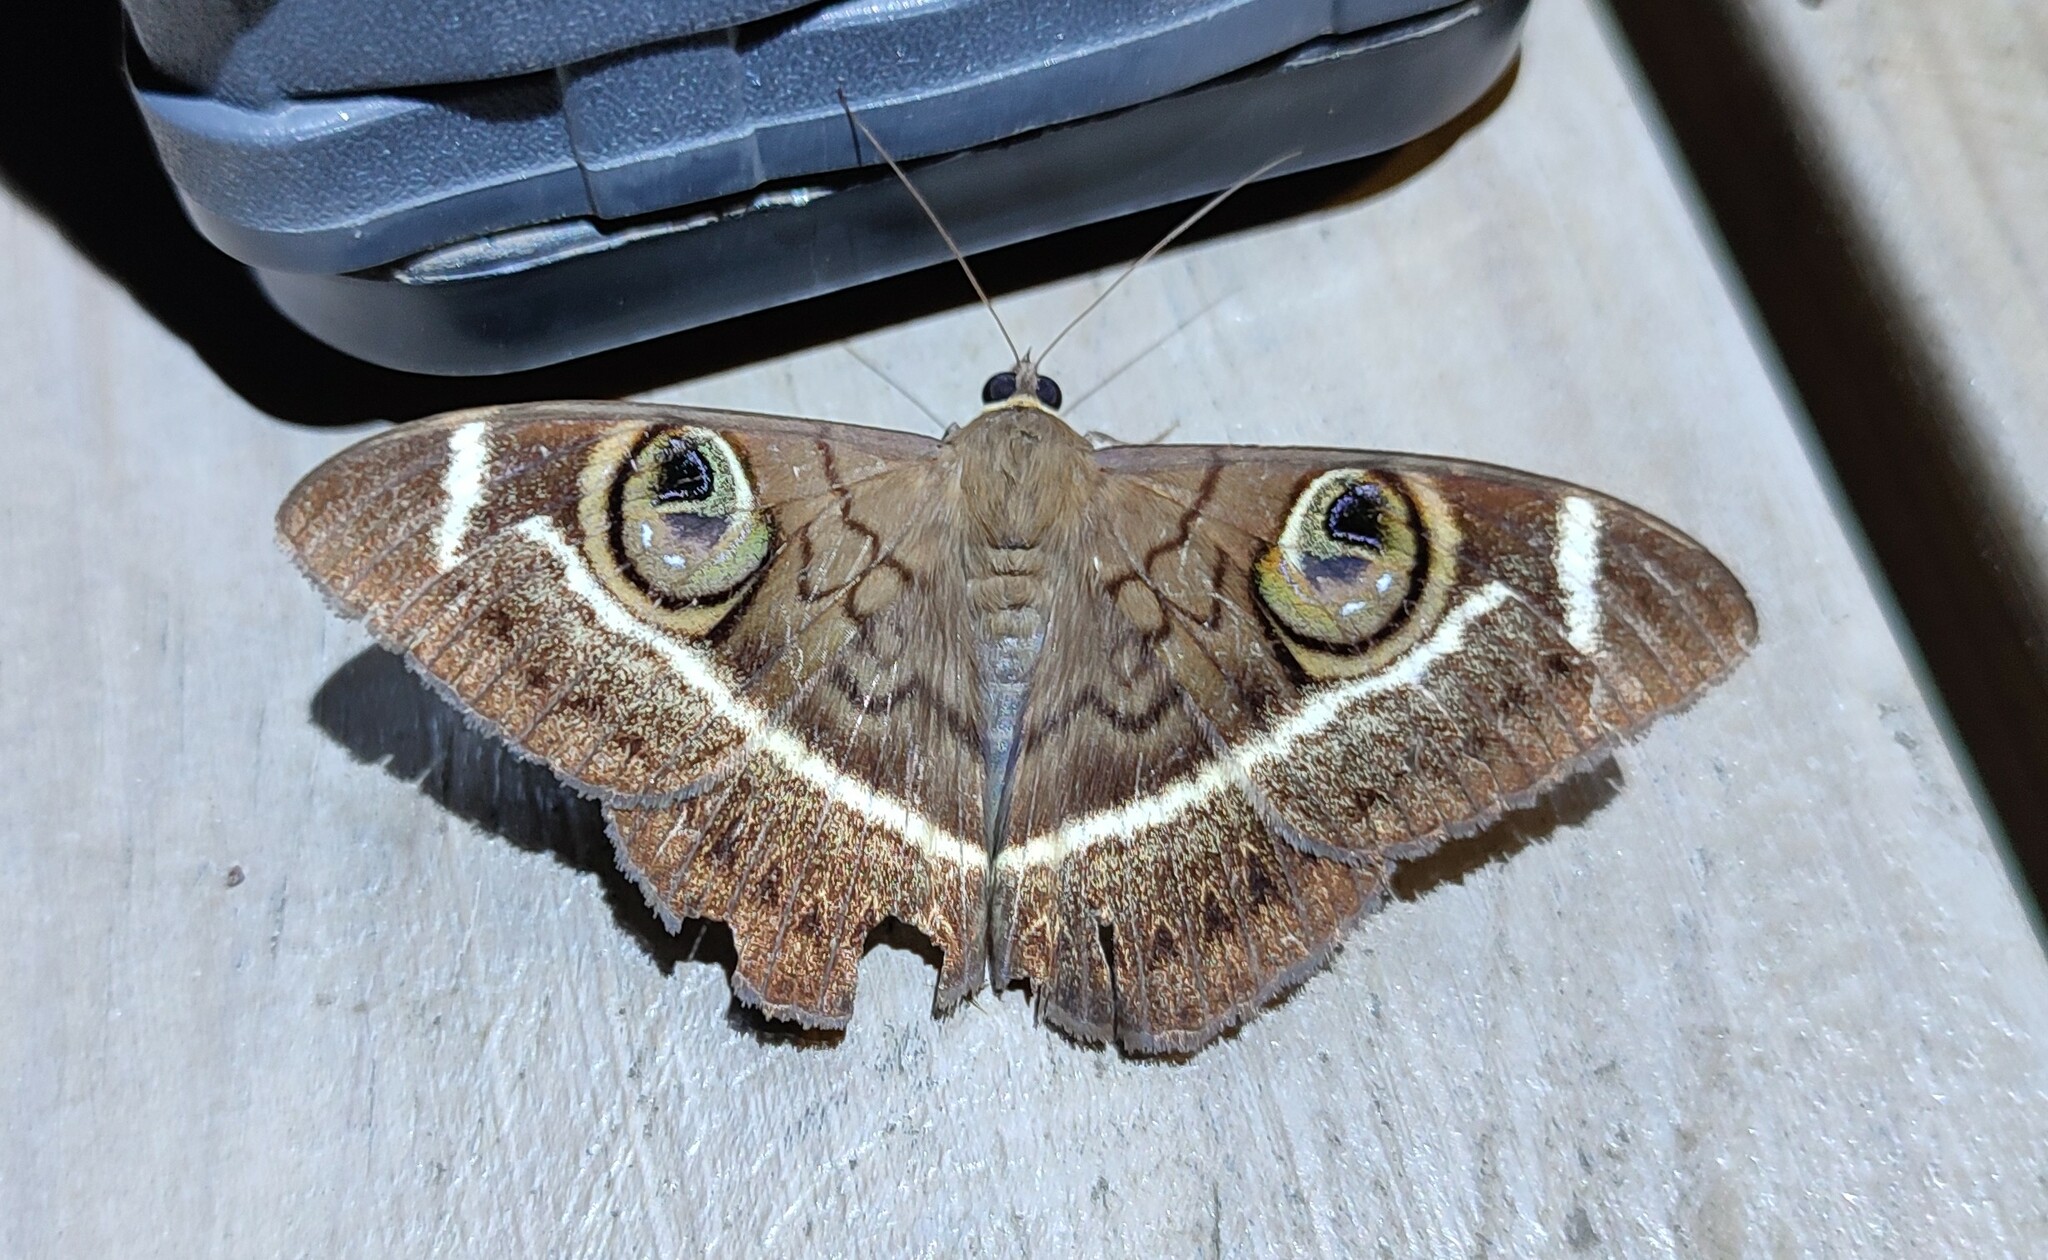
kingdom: Animalia
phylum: Arthropoda
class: Insecta
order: Lepidoptera
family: Erebidae
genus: Cyligramma
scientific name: Cyligramma latona
